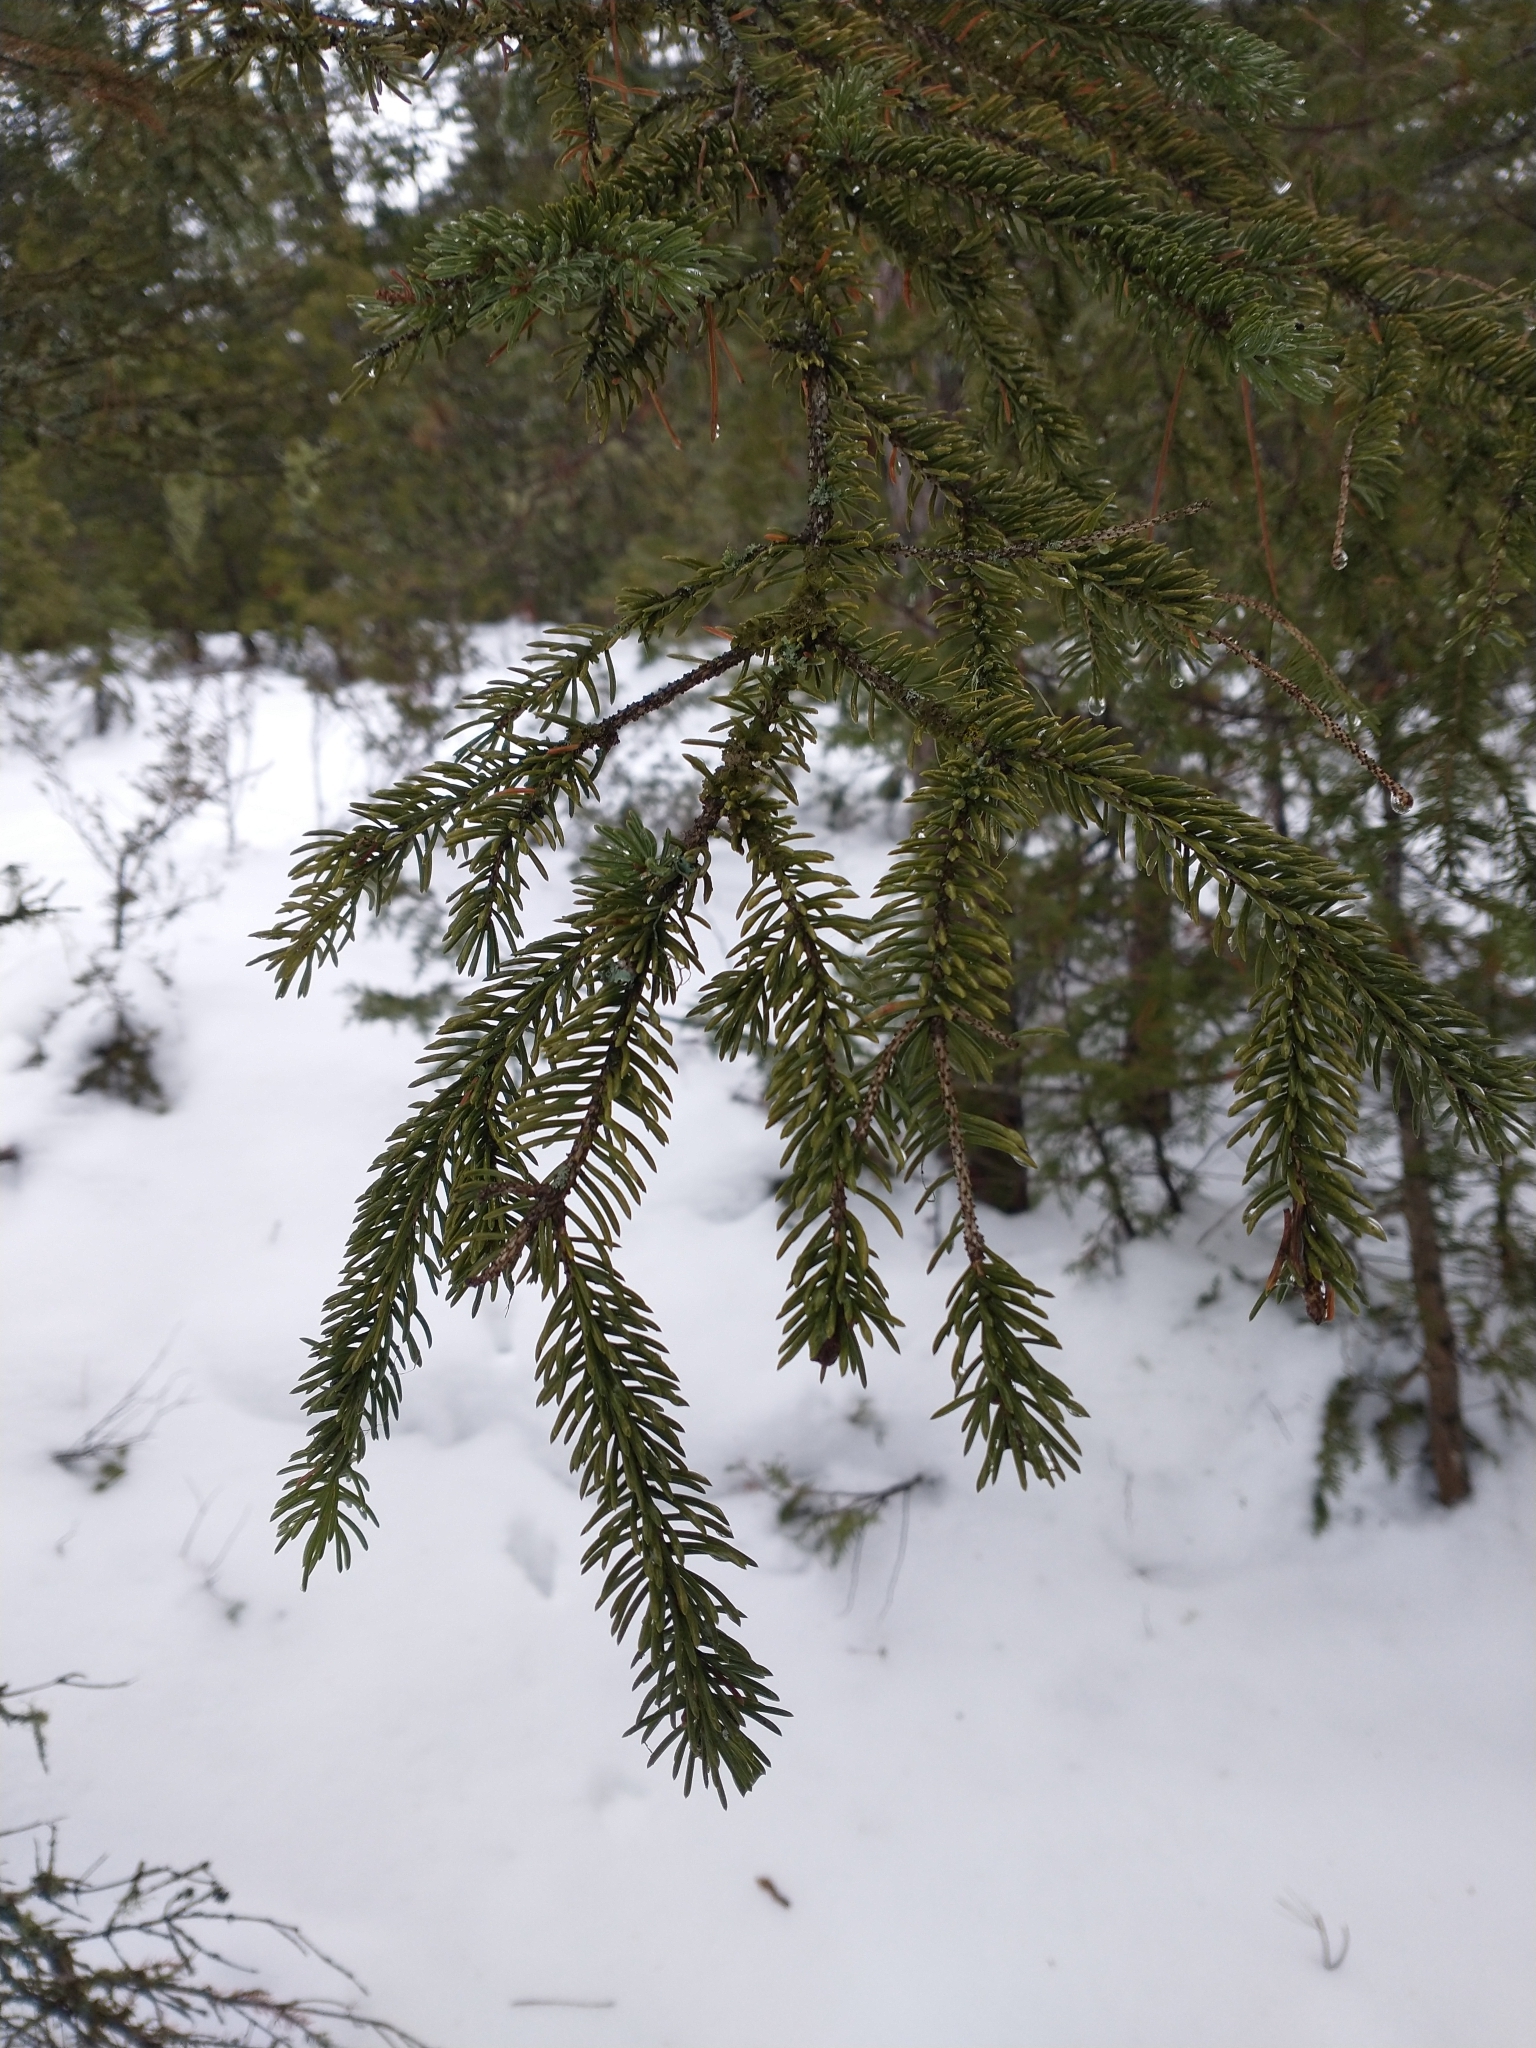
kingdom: Plantae
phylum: Tracheophyta
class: Pinopsida
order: Pinales
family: Pinaceae
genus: Picea
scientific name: Picea mariana
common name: Black spruce
